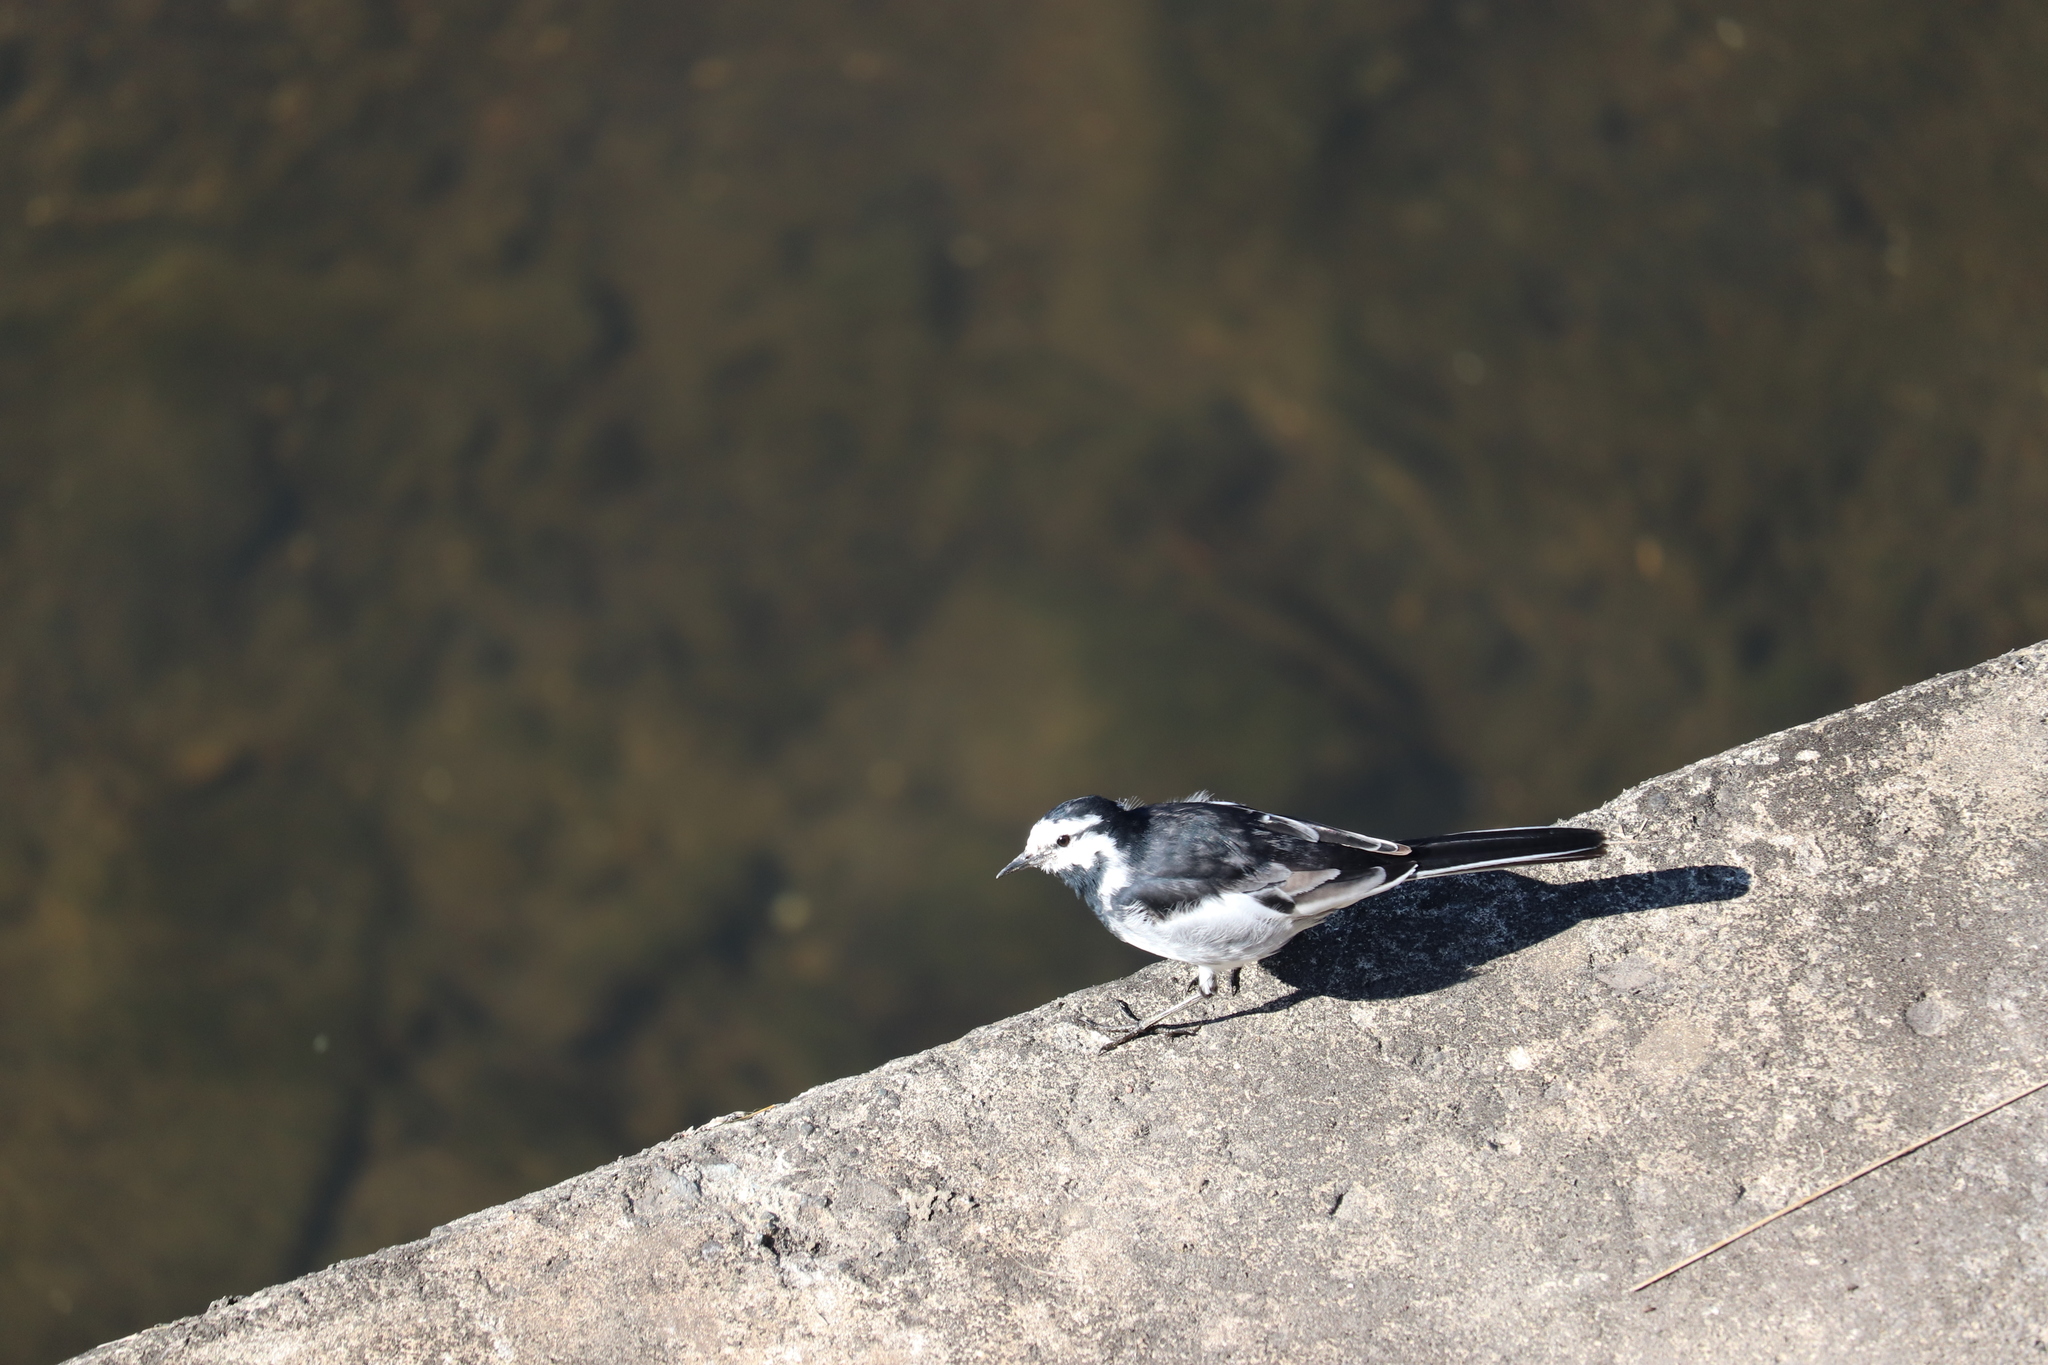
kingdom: Animalia
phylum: Chordata
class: Aves
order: Passeriformes
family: Motacillidae
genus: Motacilla
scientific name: Motacilla alba
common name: White wagtail
